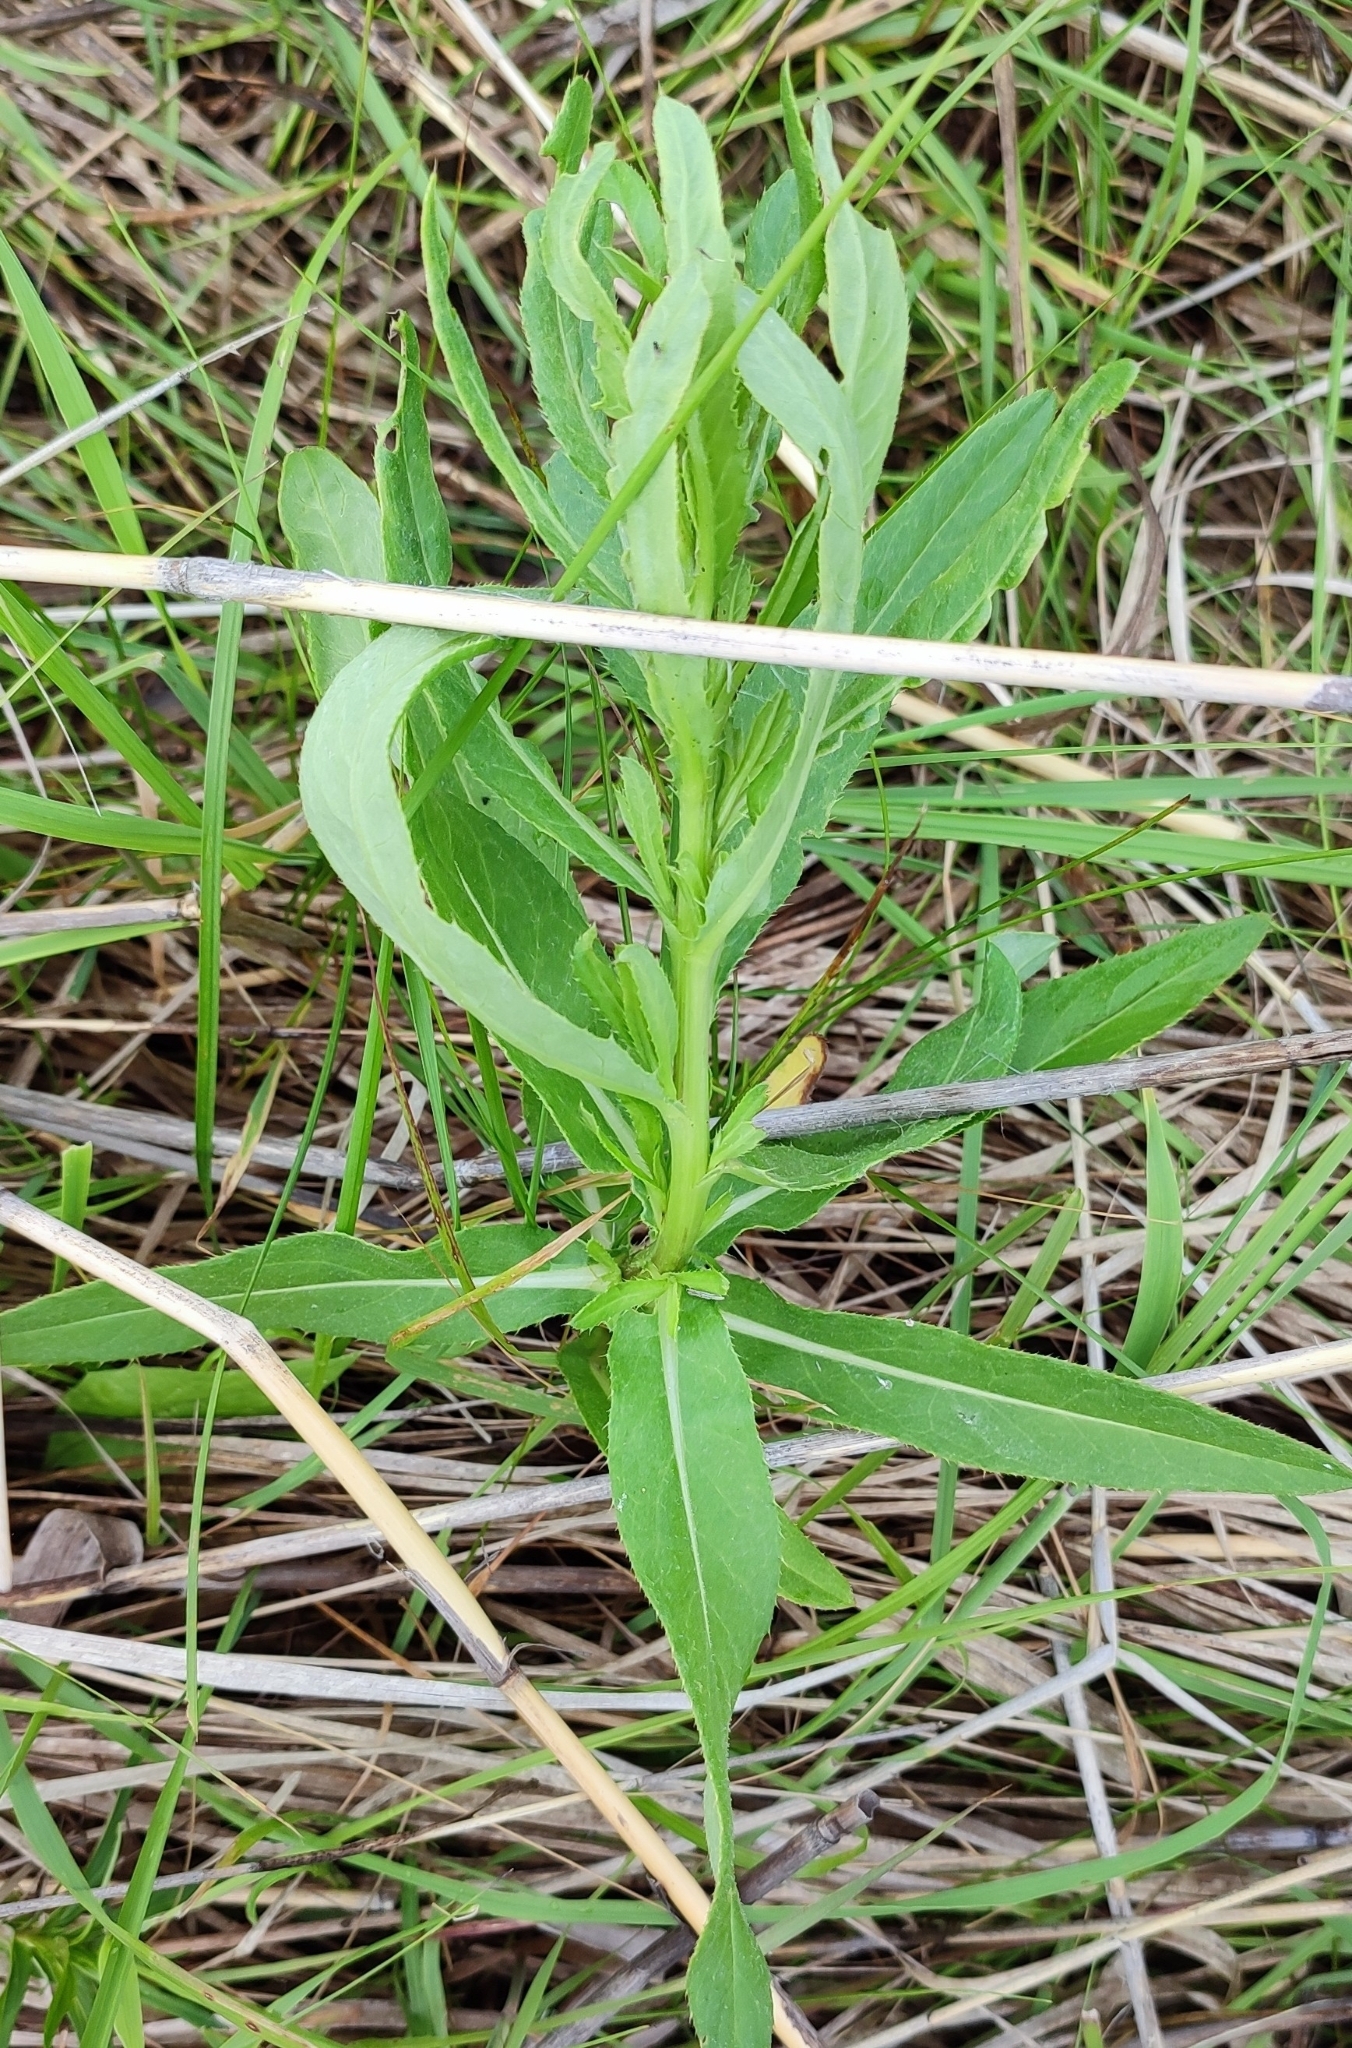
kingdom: Plantae
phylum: Tracheophyta
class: Magnoliopsida
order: Asterales
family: Asteraceae
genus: Cirsium
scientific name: Cirsium arvense
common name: Creeping thistle
